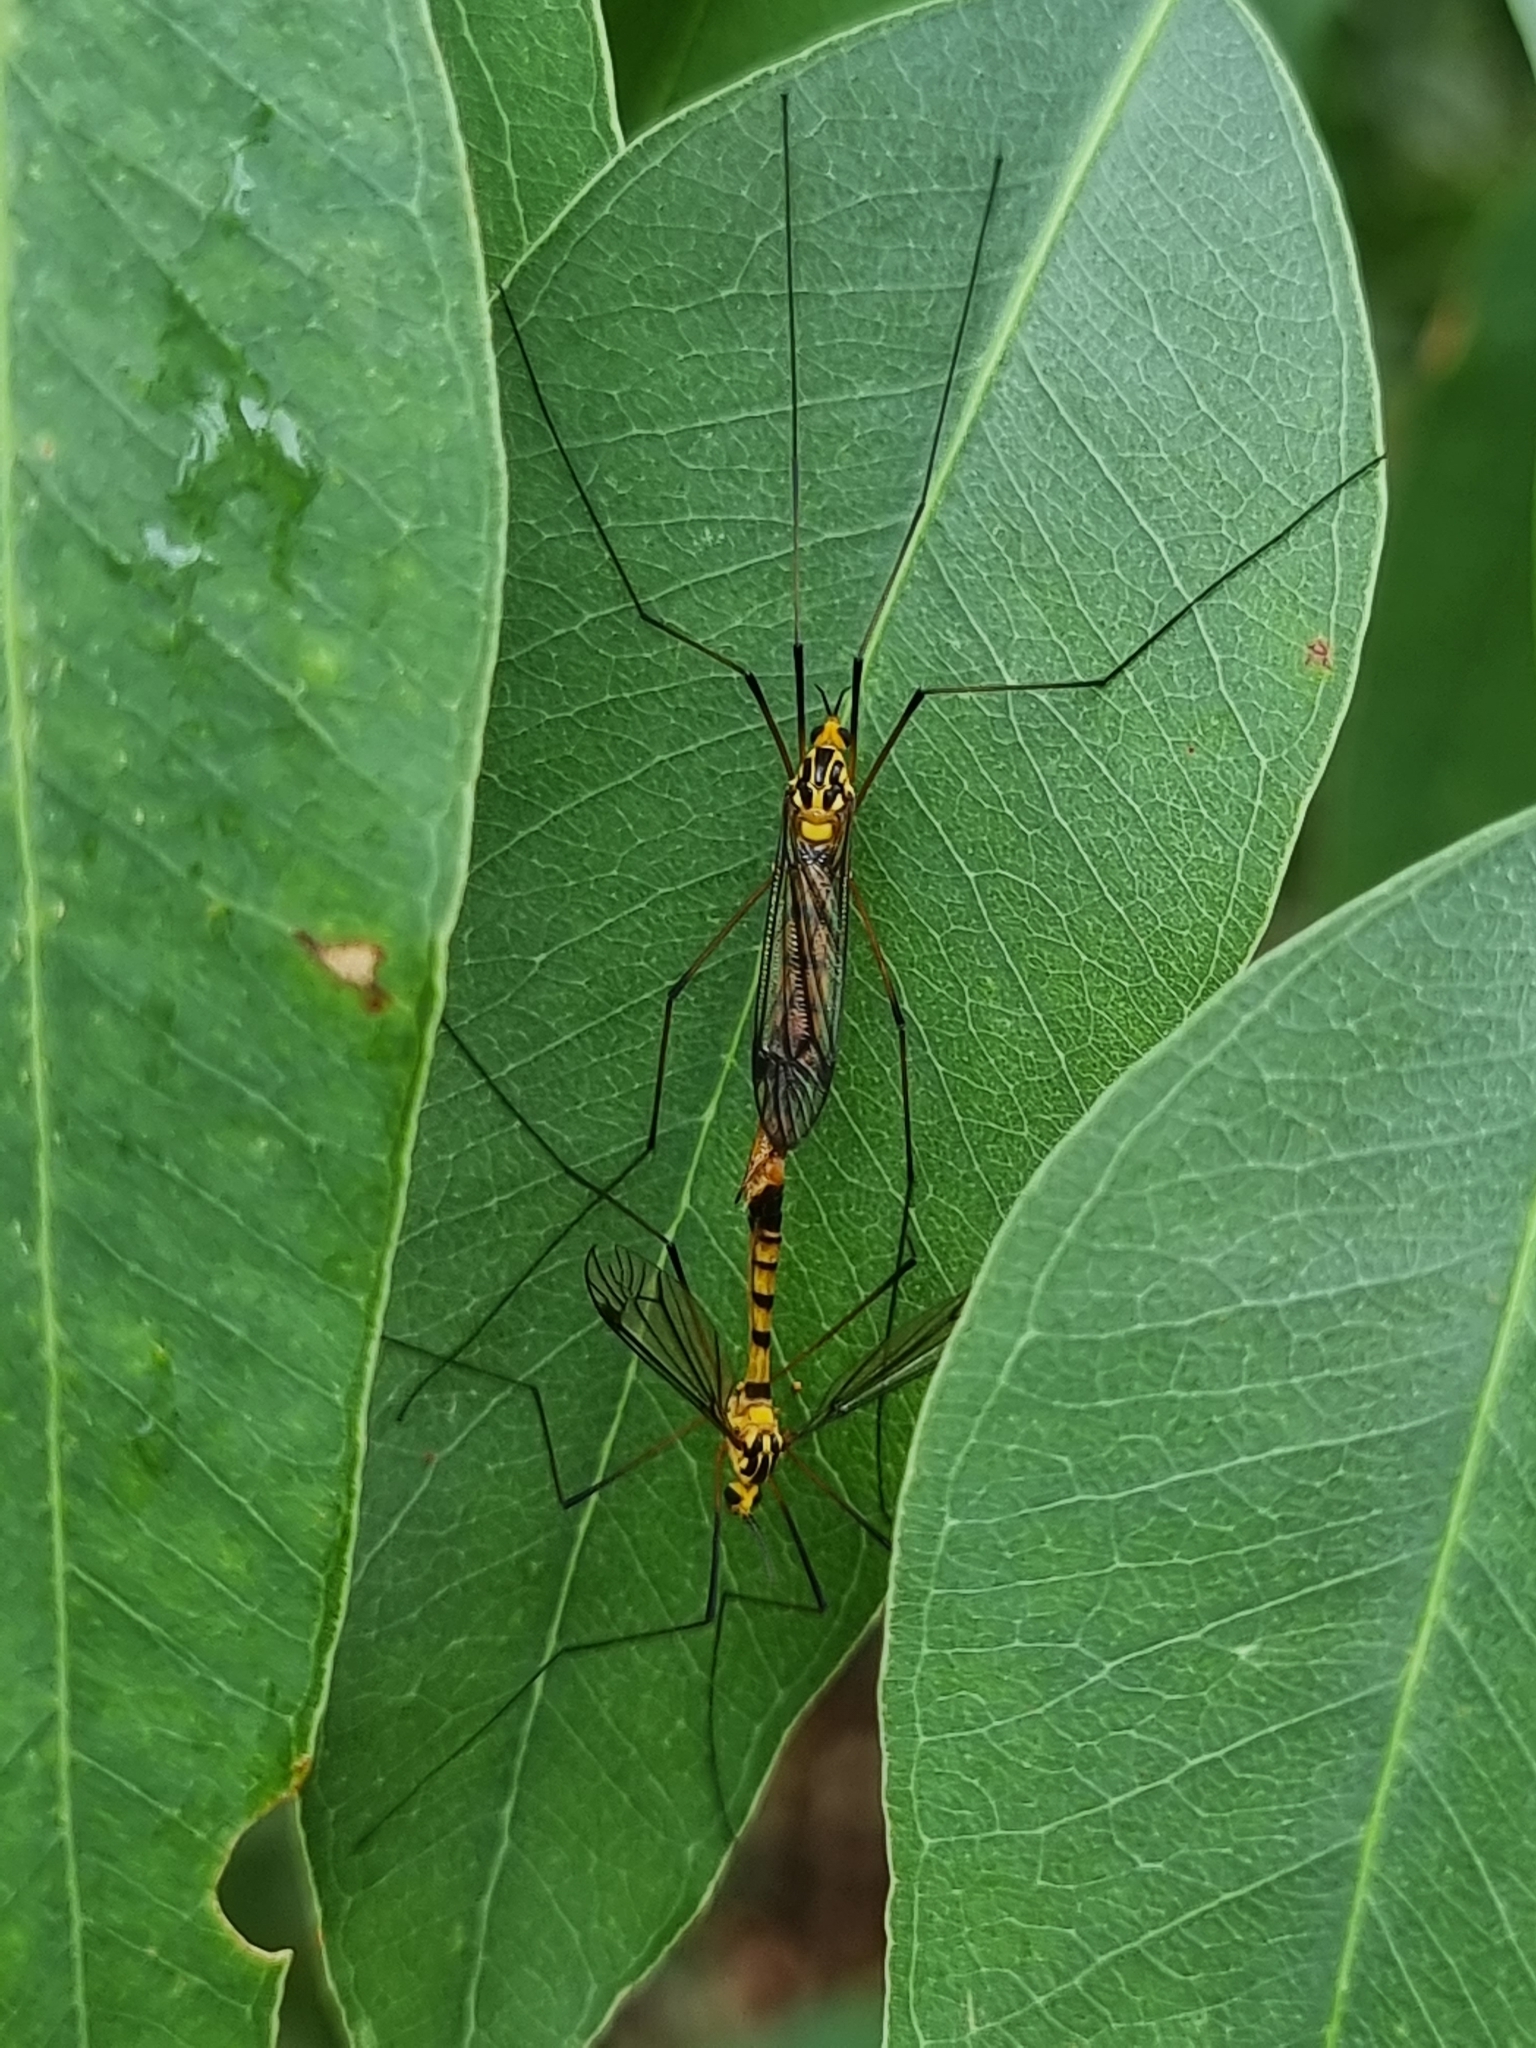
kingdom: Animalia
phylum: Arthropoda
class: Insecta
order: Diptera
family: Tipulidae
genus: Nephrotoma
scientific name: Nephrotoma australasiae
